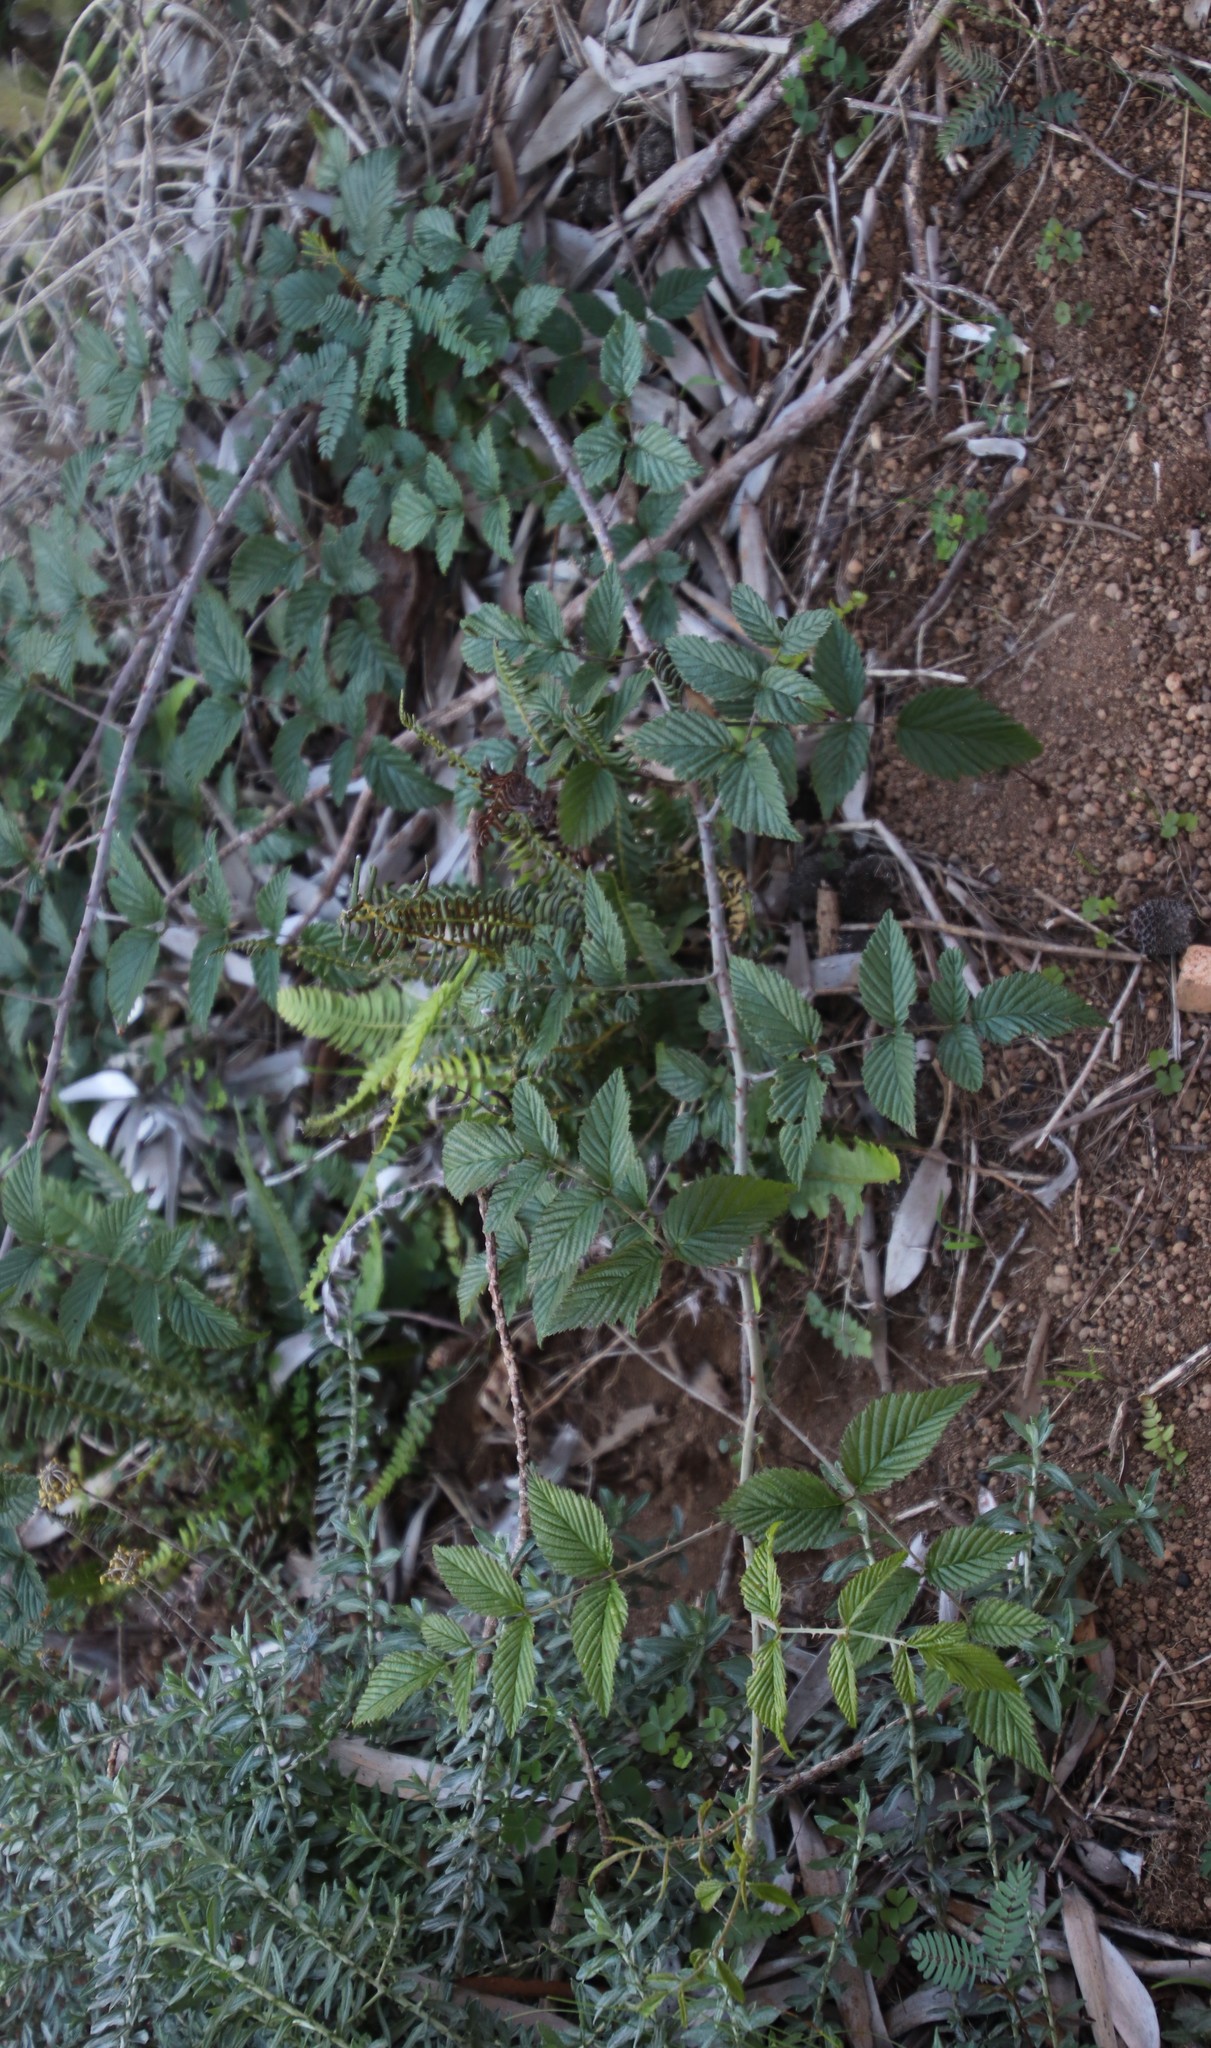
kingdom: Plantae
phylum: Tracheophyta
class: Magnoliopsida
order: Rosales
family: Rosaceae
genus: Rubus
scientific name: Rubus pinnatus
